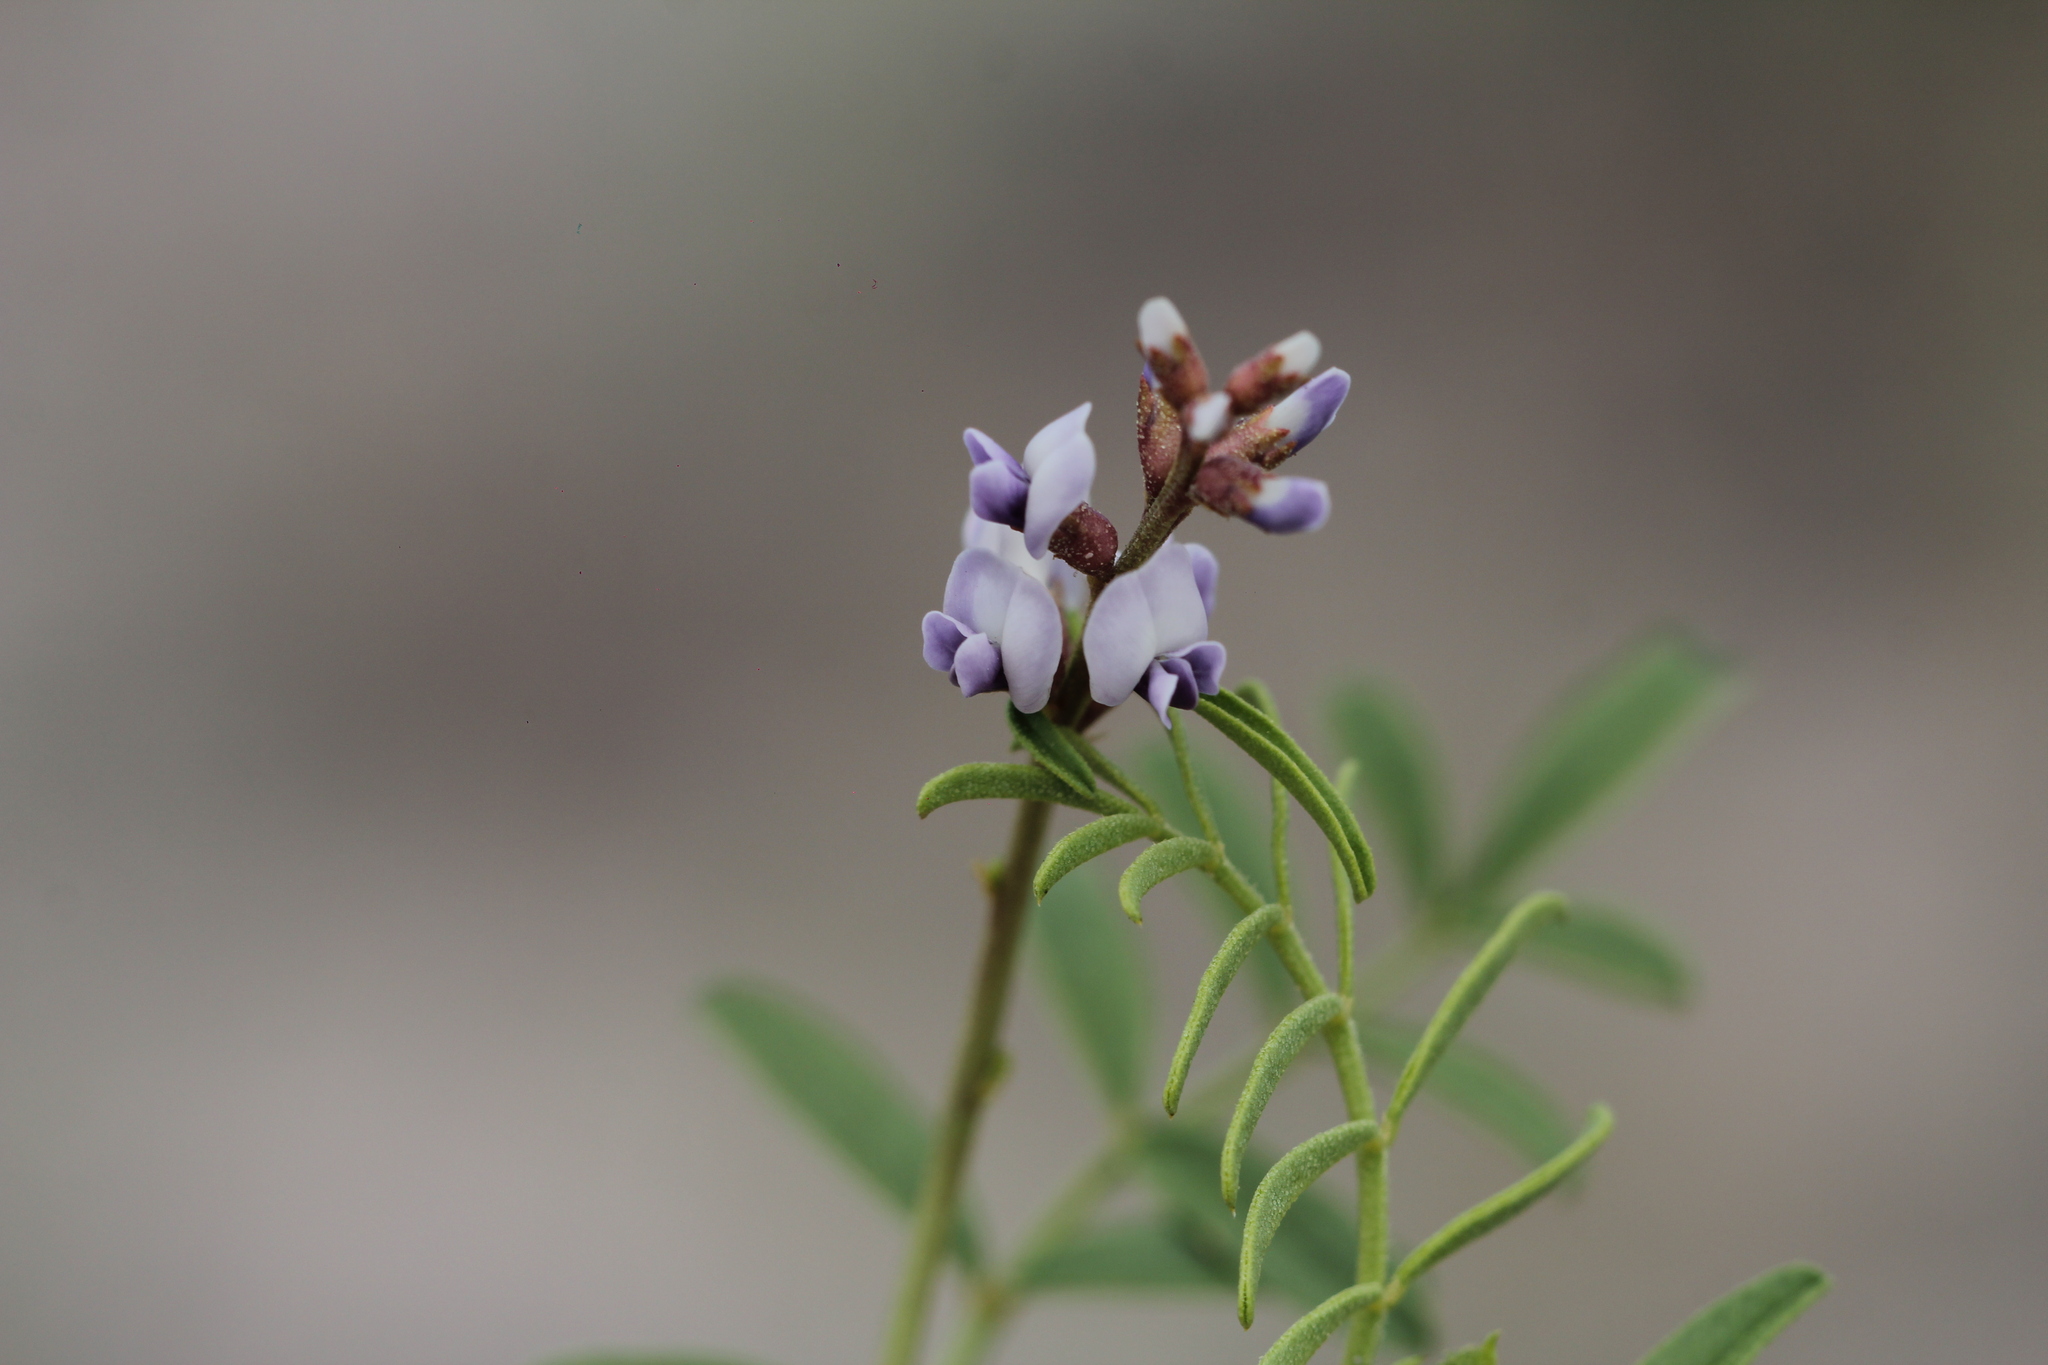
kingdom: Plantae
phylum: Tracheophyta
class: Magnoliopsida
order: Fabales
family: Fabaceae
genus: Glycyrrhiza
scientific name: Glycyrrhiza astragalina
